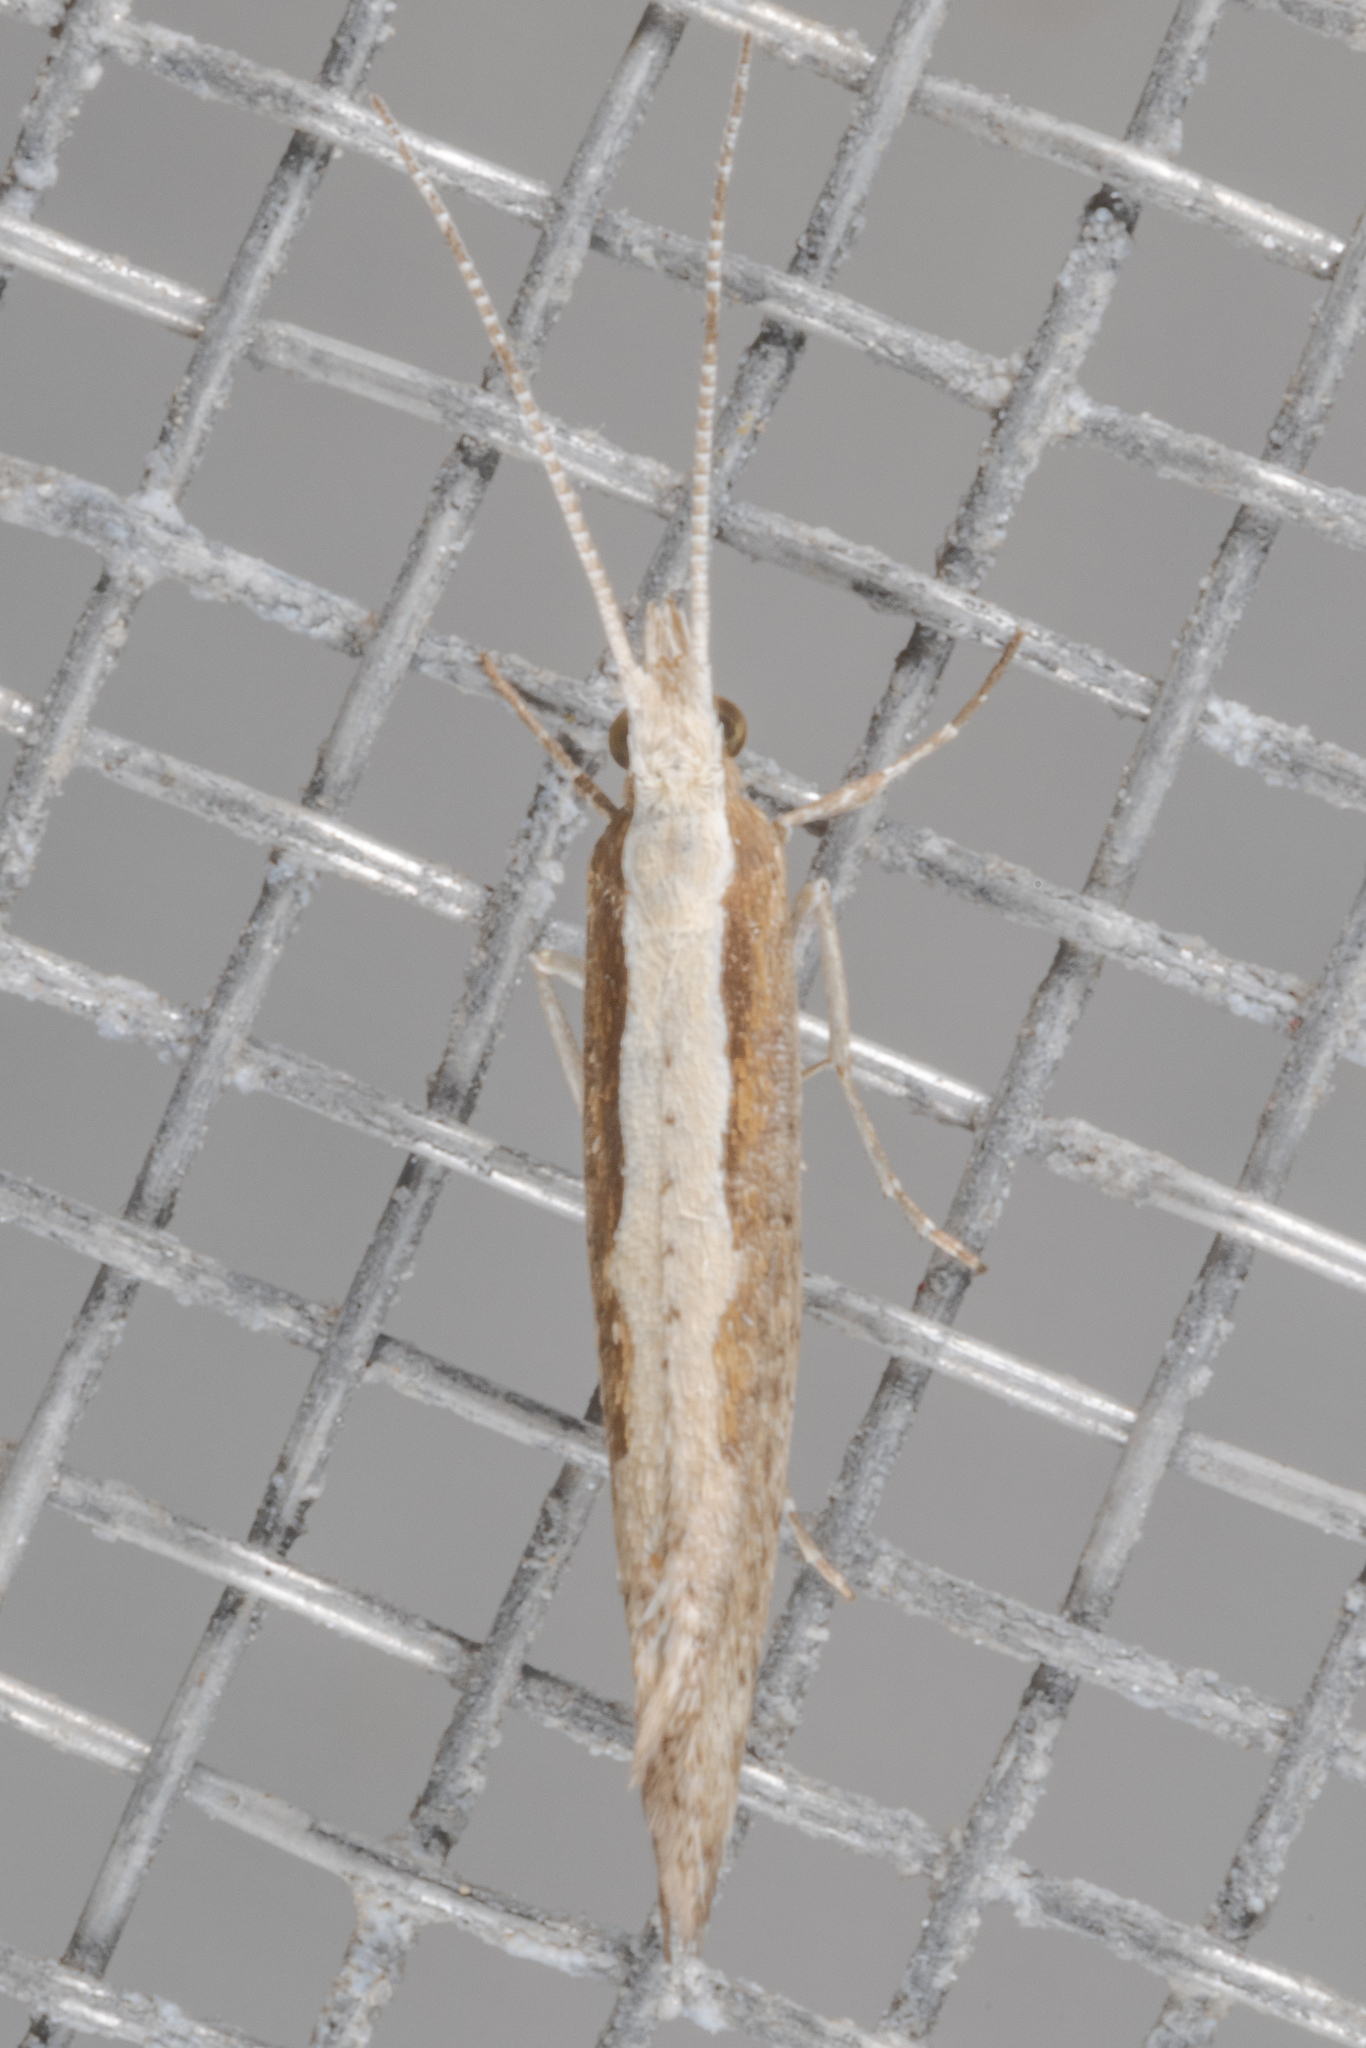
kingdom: Animalia
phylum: Arthropoda
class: Insecta
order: Lepidoptera
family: Plutellidae
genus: Plutella
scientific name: Plutella xylostella
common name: Diamond-back moth
